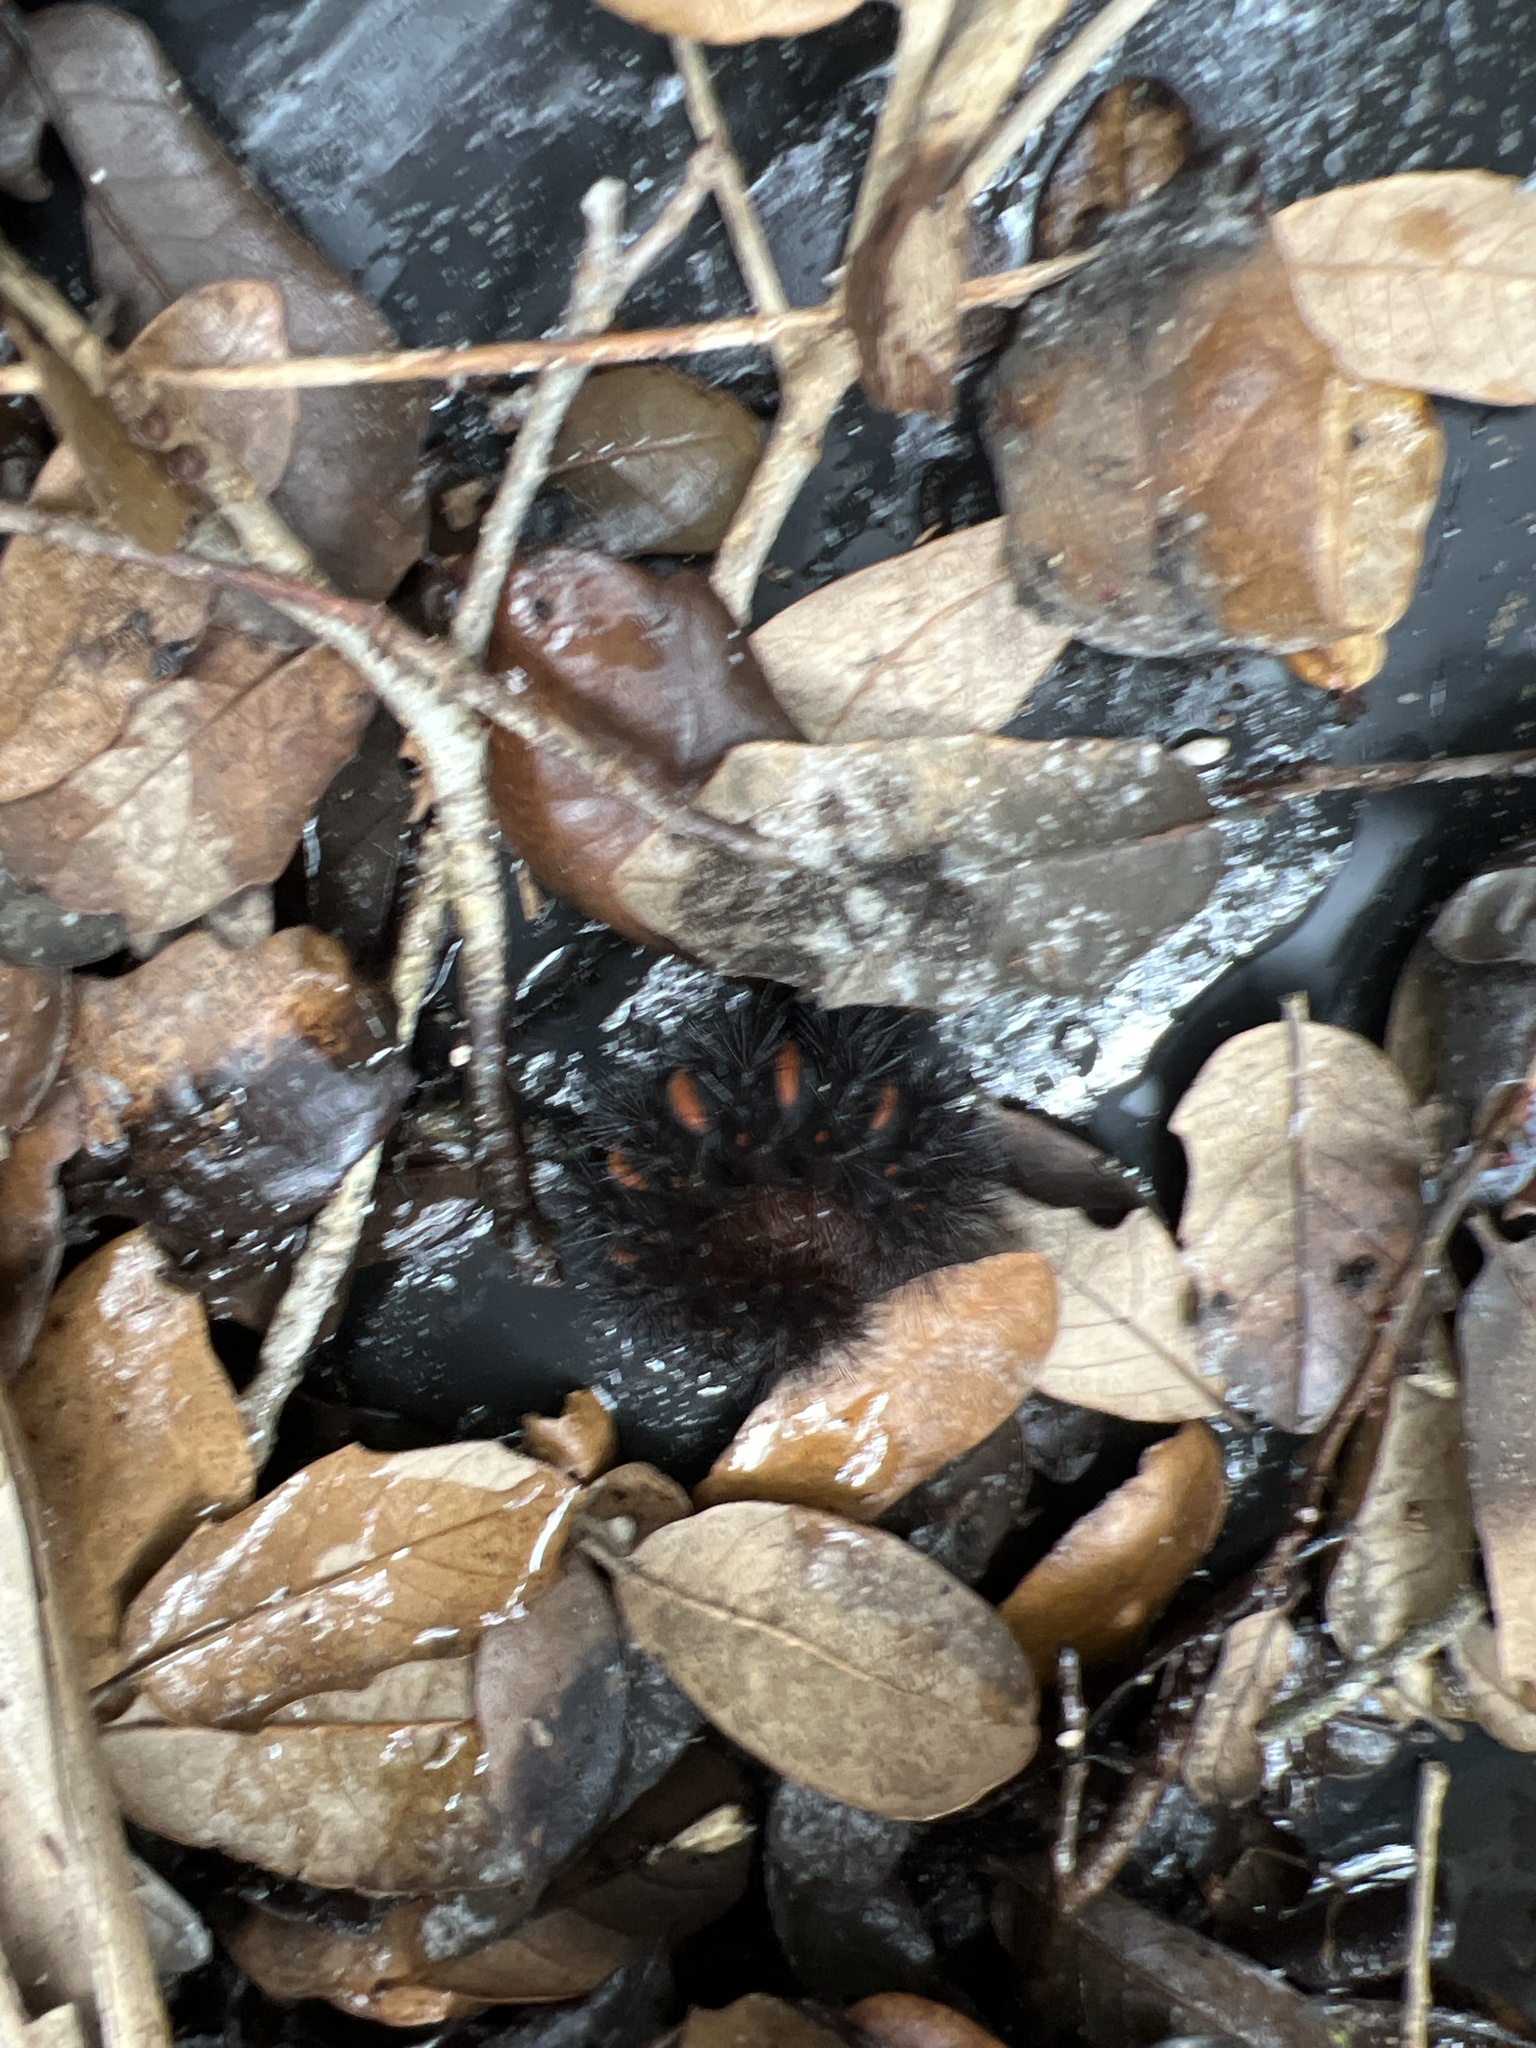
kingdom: Animalia
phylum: Arthropoda
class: Insecta
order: Lepidoptera
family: Erebidae
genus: Hypercompe
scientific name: Hypercompe scribonia
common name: Giant leopard moth
